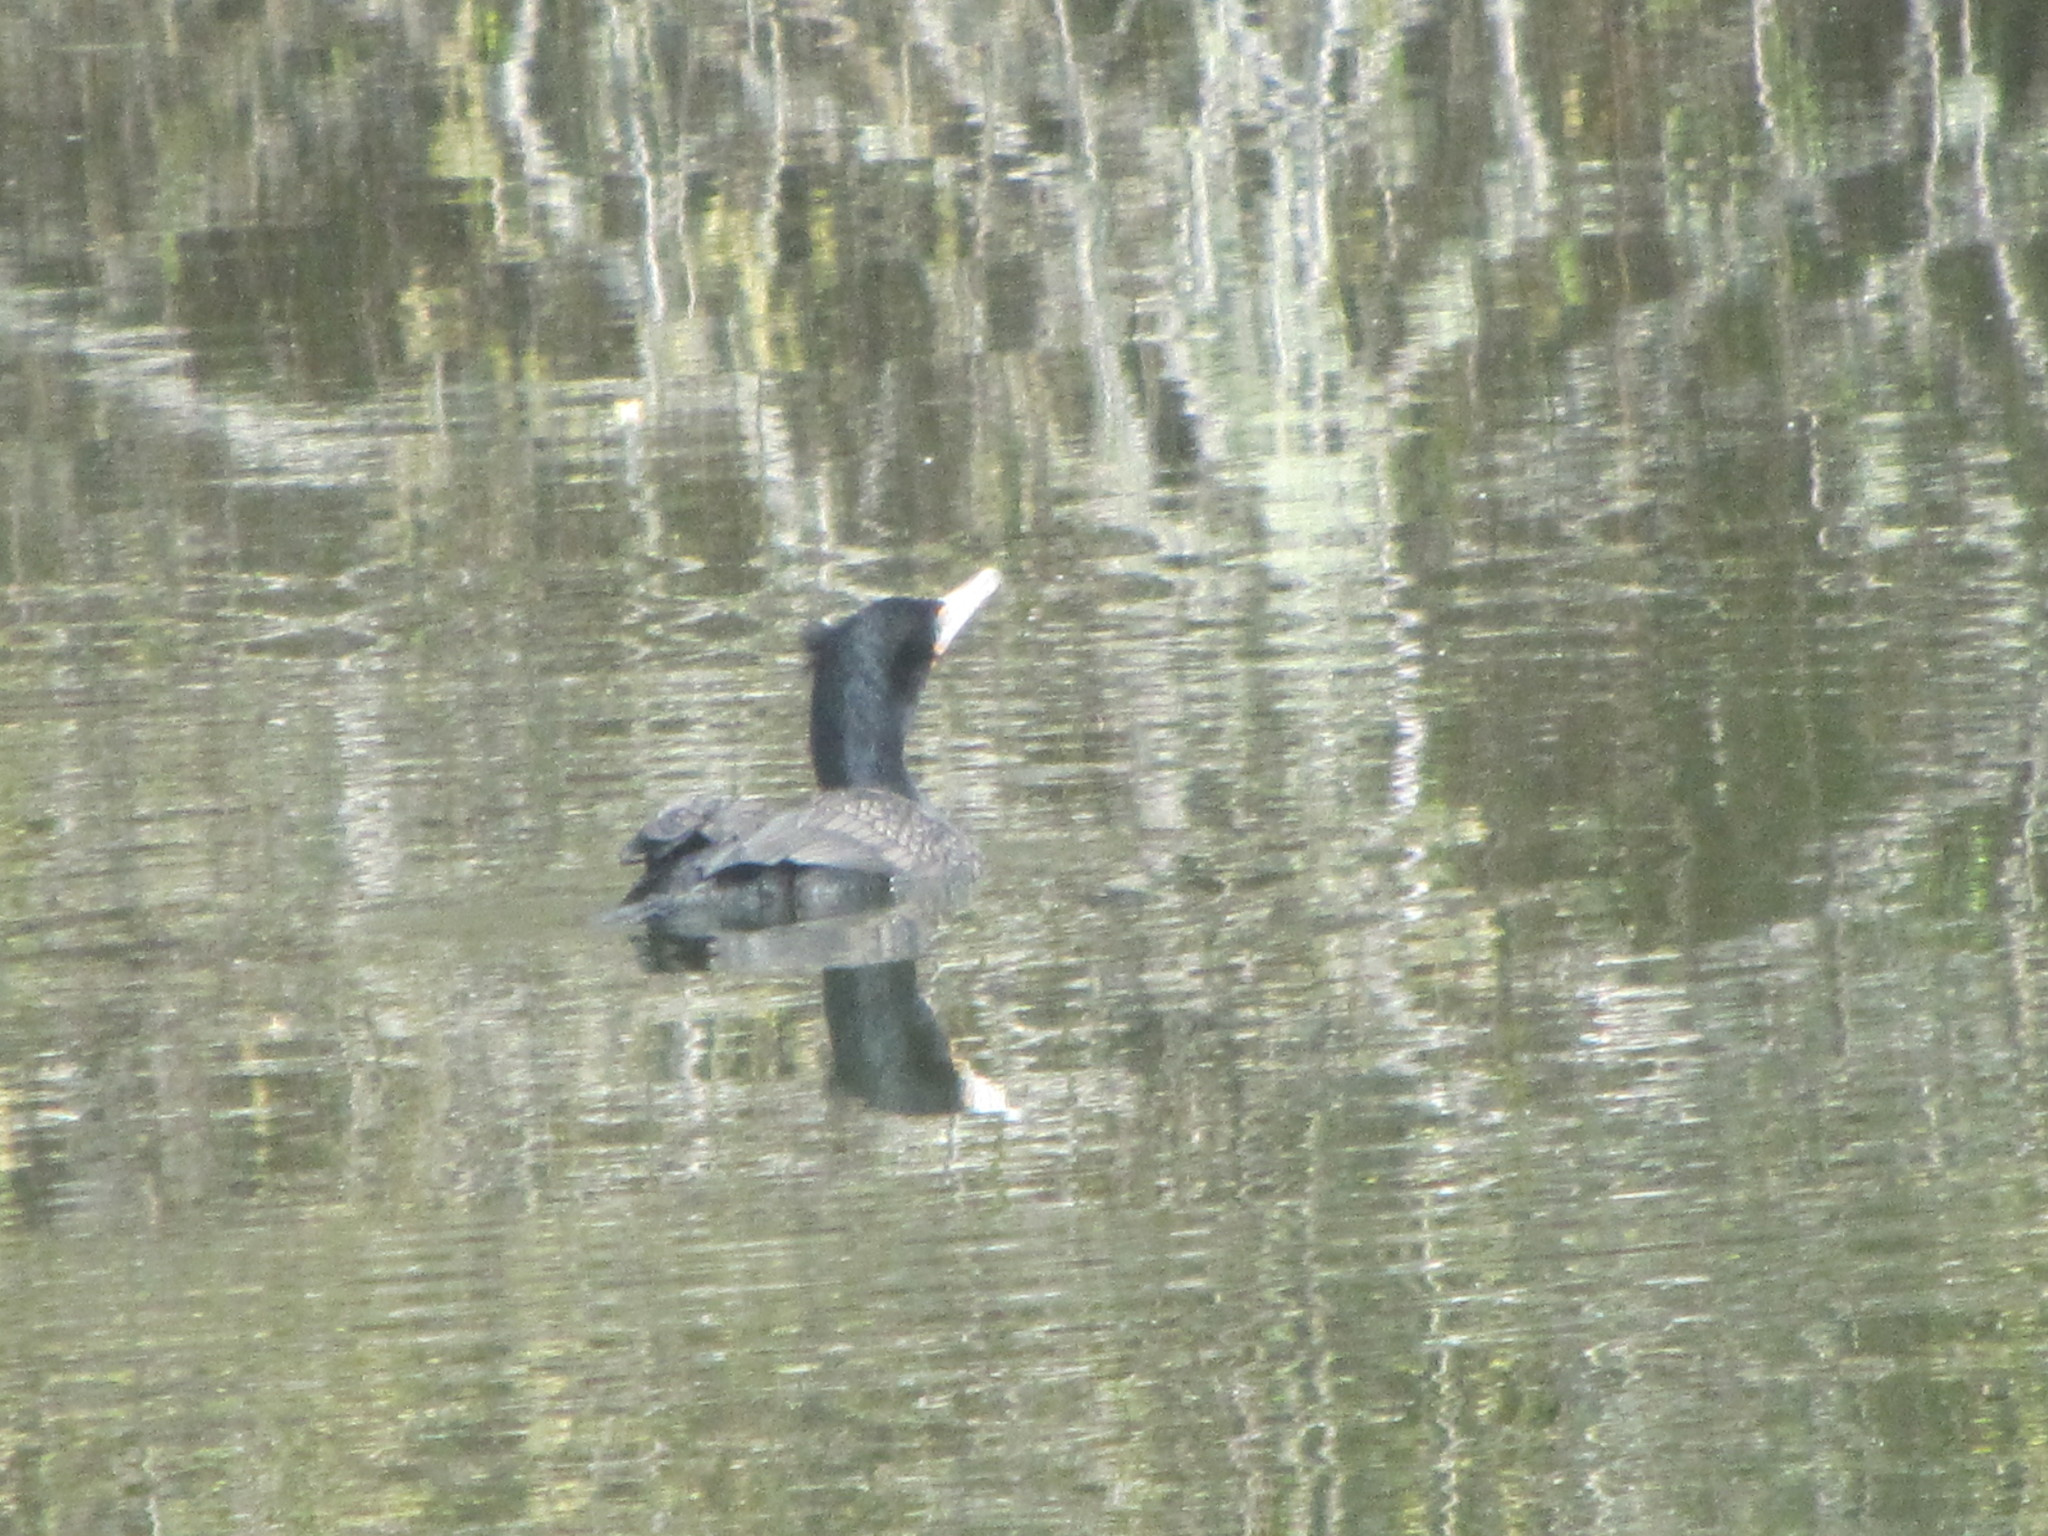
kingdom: Animalia
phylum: Chordata
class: Aves
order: Suliformes
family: Phalacrocoracidae
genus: Phalacrocorax
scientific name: Phalacrocorax auritus
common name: Double-crested cormorant
